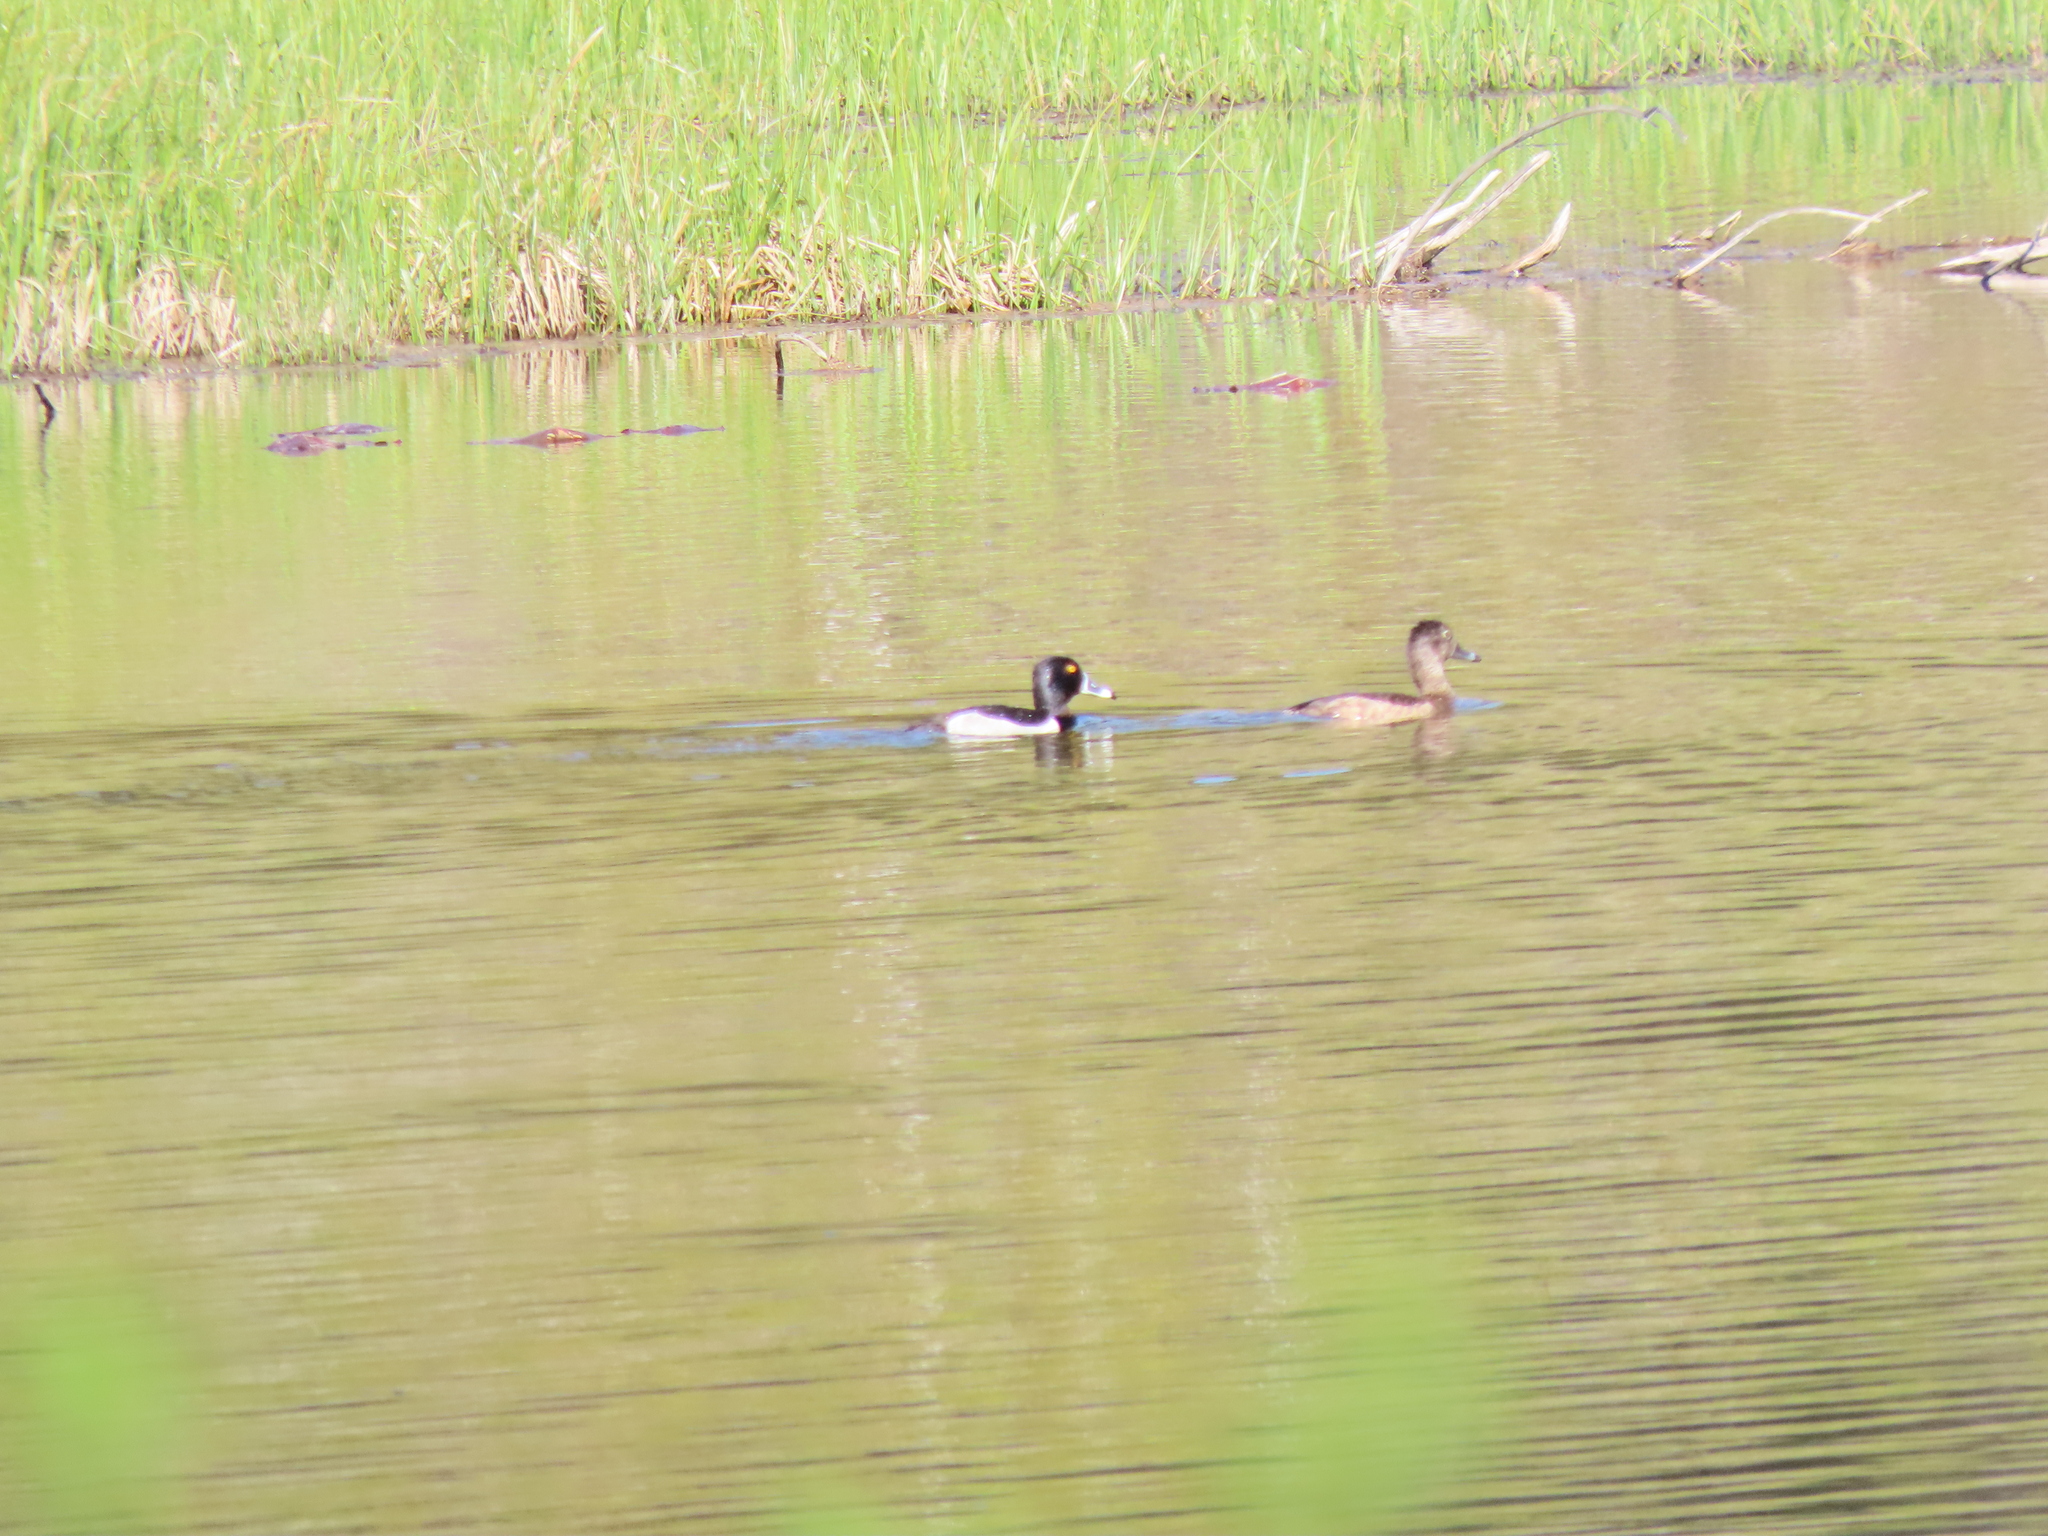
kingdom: Animalia
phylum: Chordata
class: Aves
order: Anseriformes
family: Anatidae
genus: Aythya
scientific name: Aythya collaris
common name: Ring-necked duck
